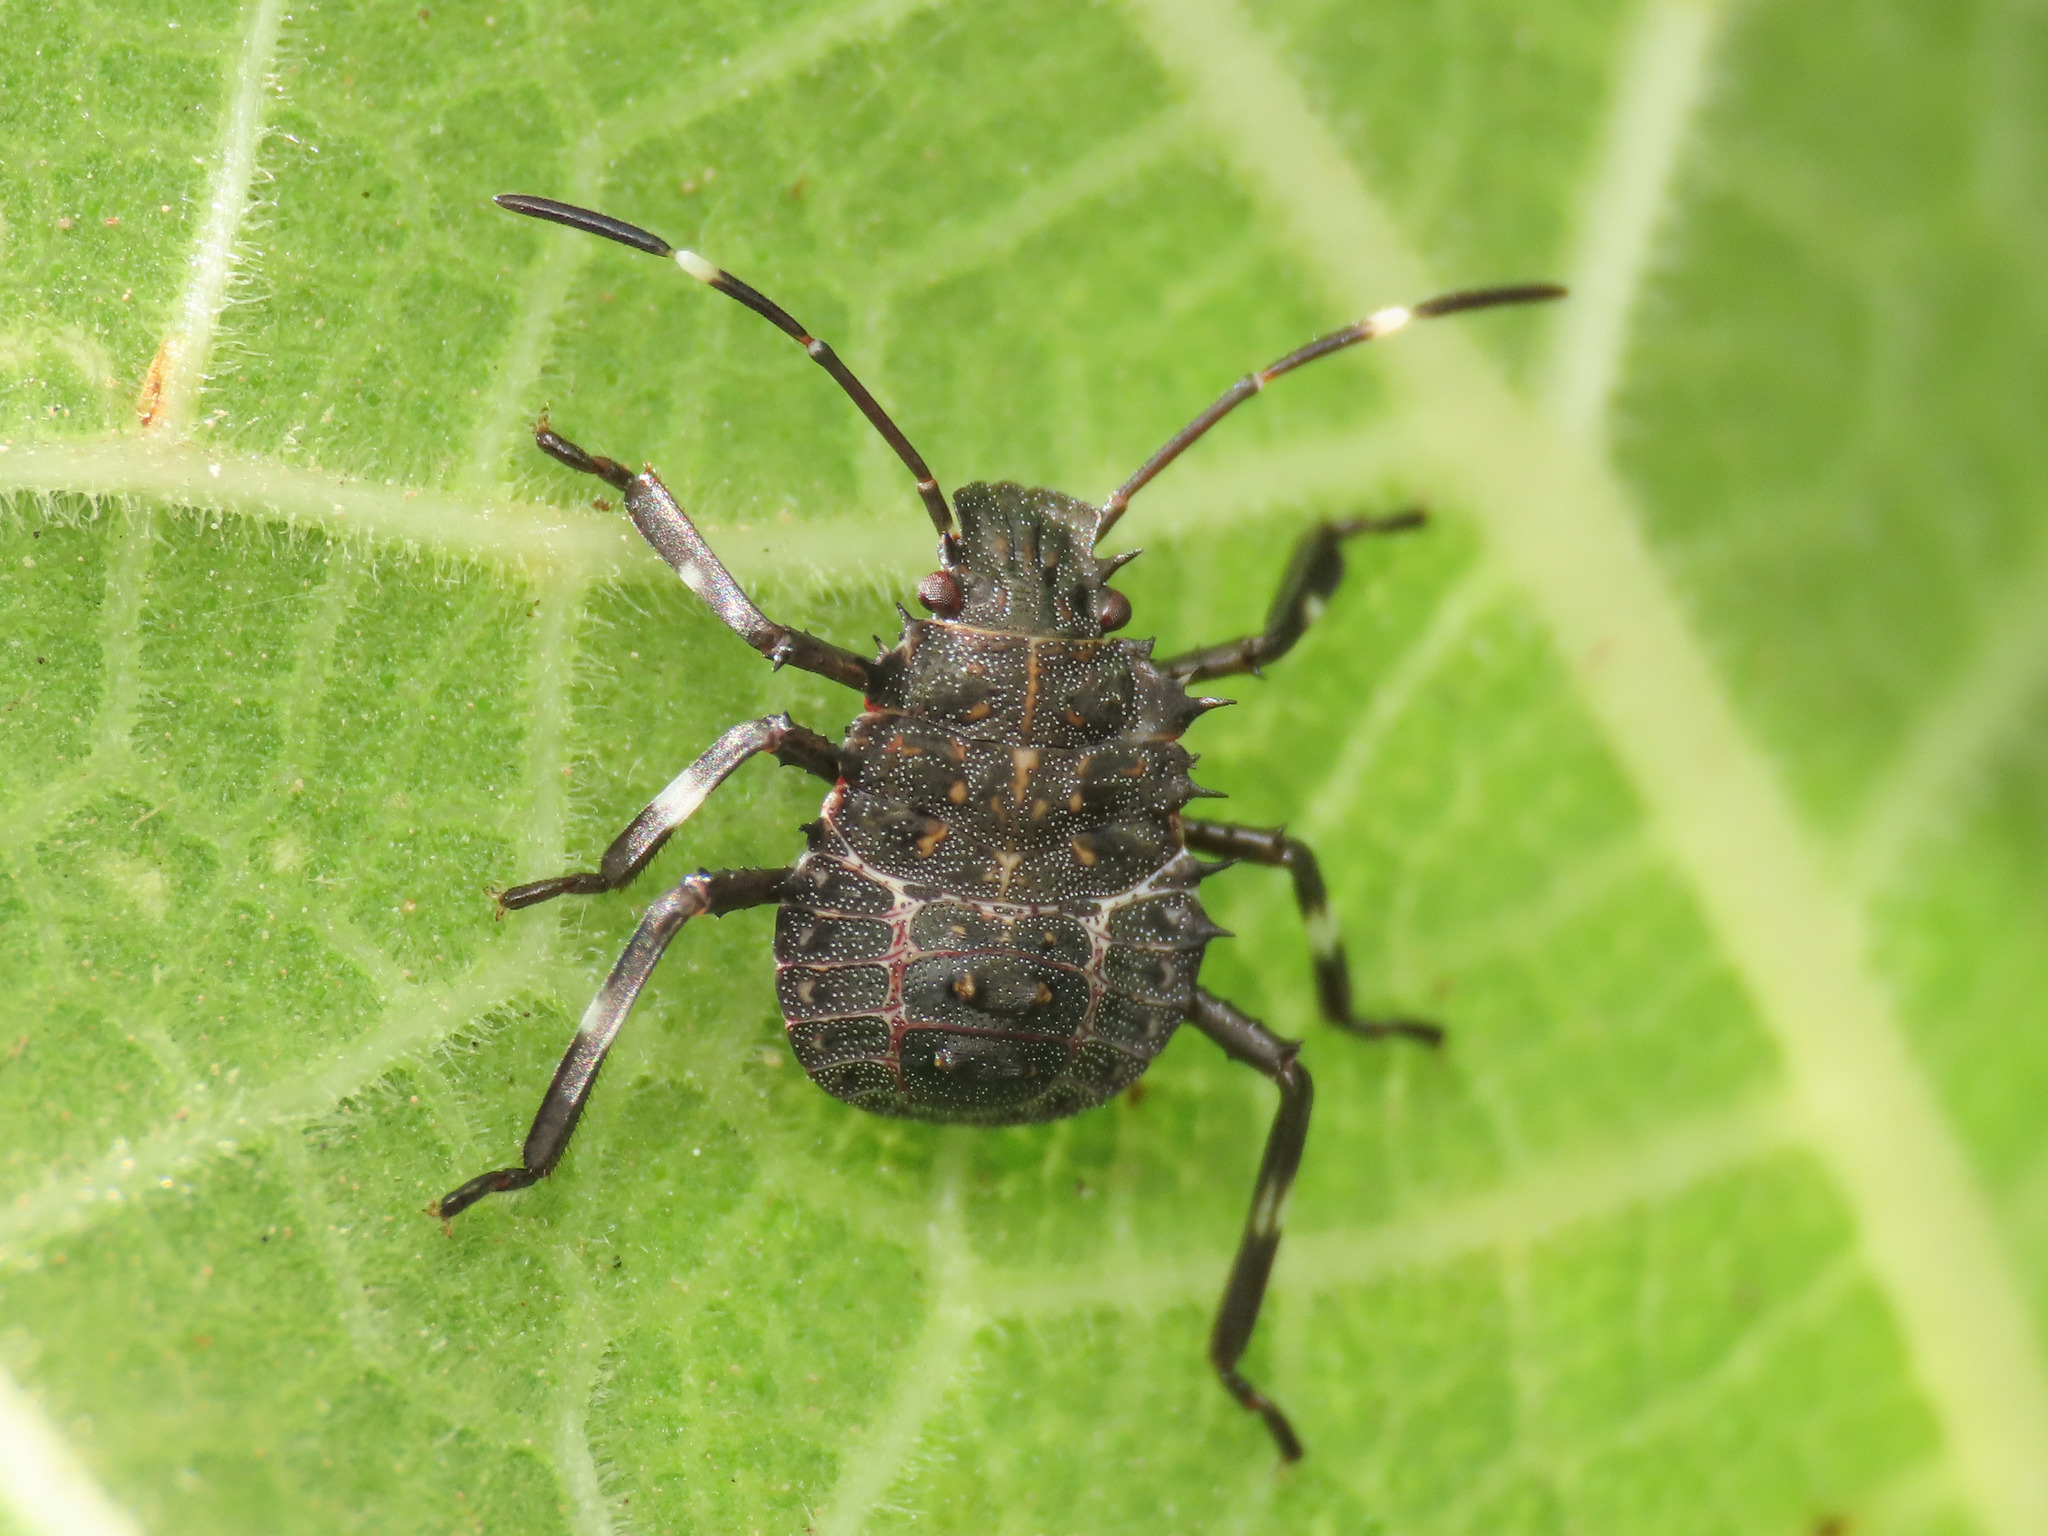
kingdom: Animalia
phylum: Arthropoda
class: Insecta
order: Hemiptera
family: Pentatomidae
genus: Halyomorpha
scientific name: Halyomorpha halys
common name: Brown marmorated stink bug
